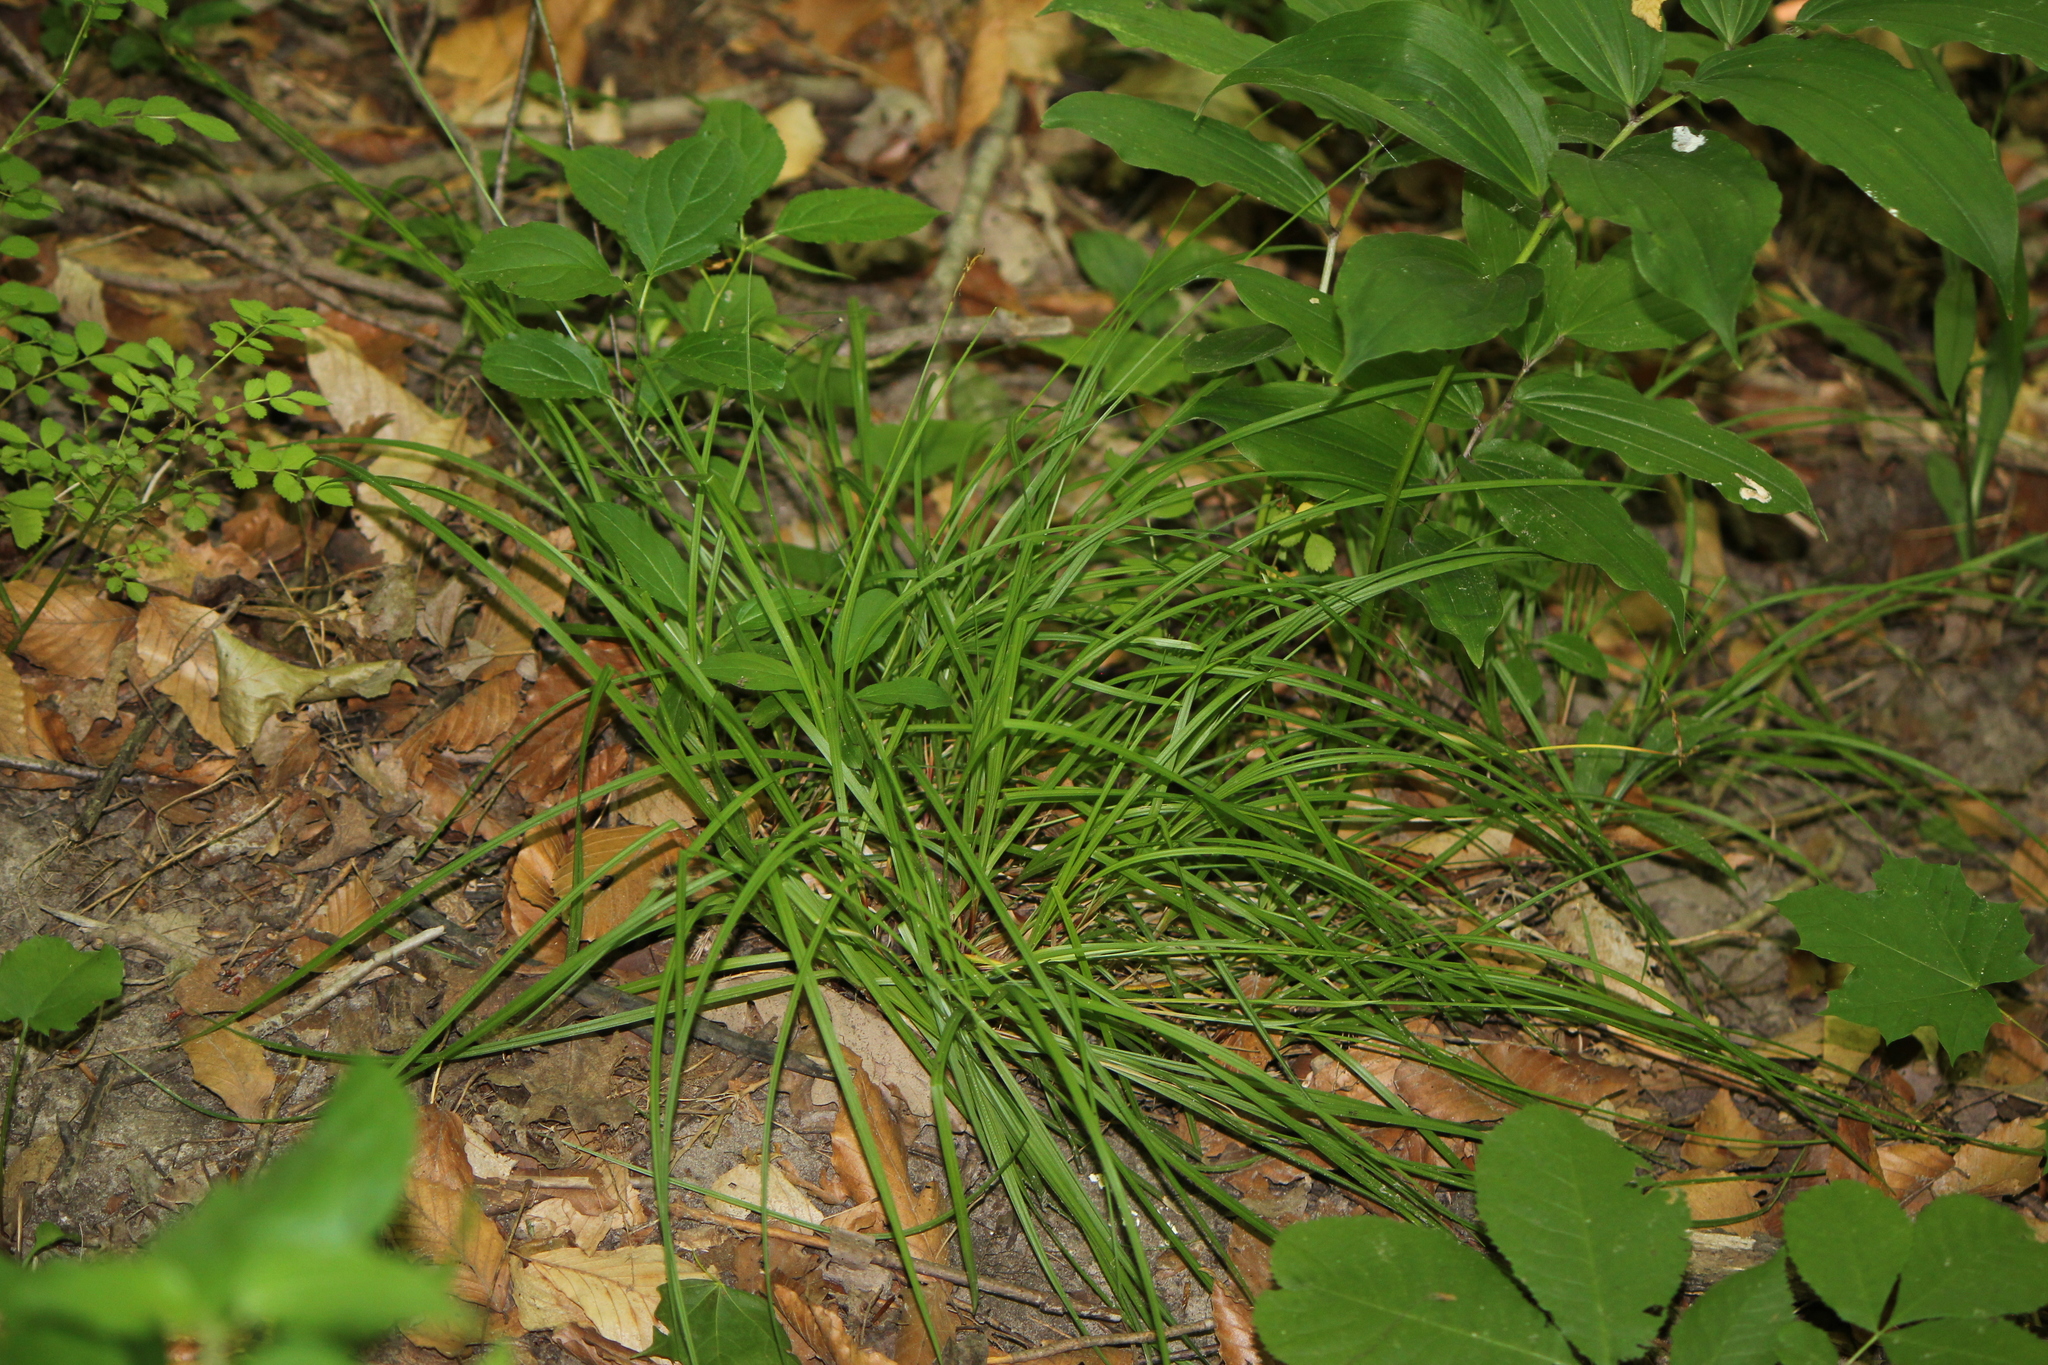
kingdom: Plantae
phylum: Tracheophyta
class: Liliopsida
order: Poales
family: Cyperaceae
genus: Carex
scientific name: Carex communis
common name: Colonial oak sedge
